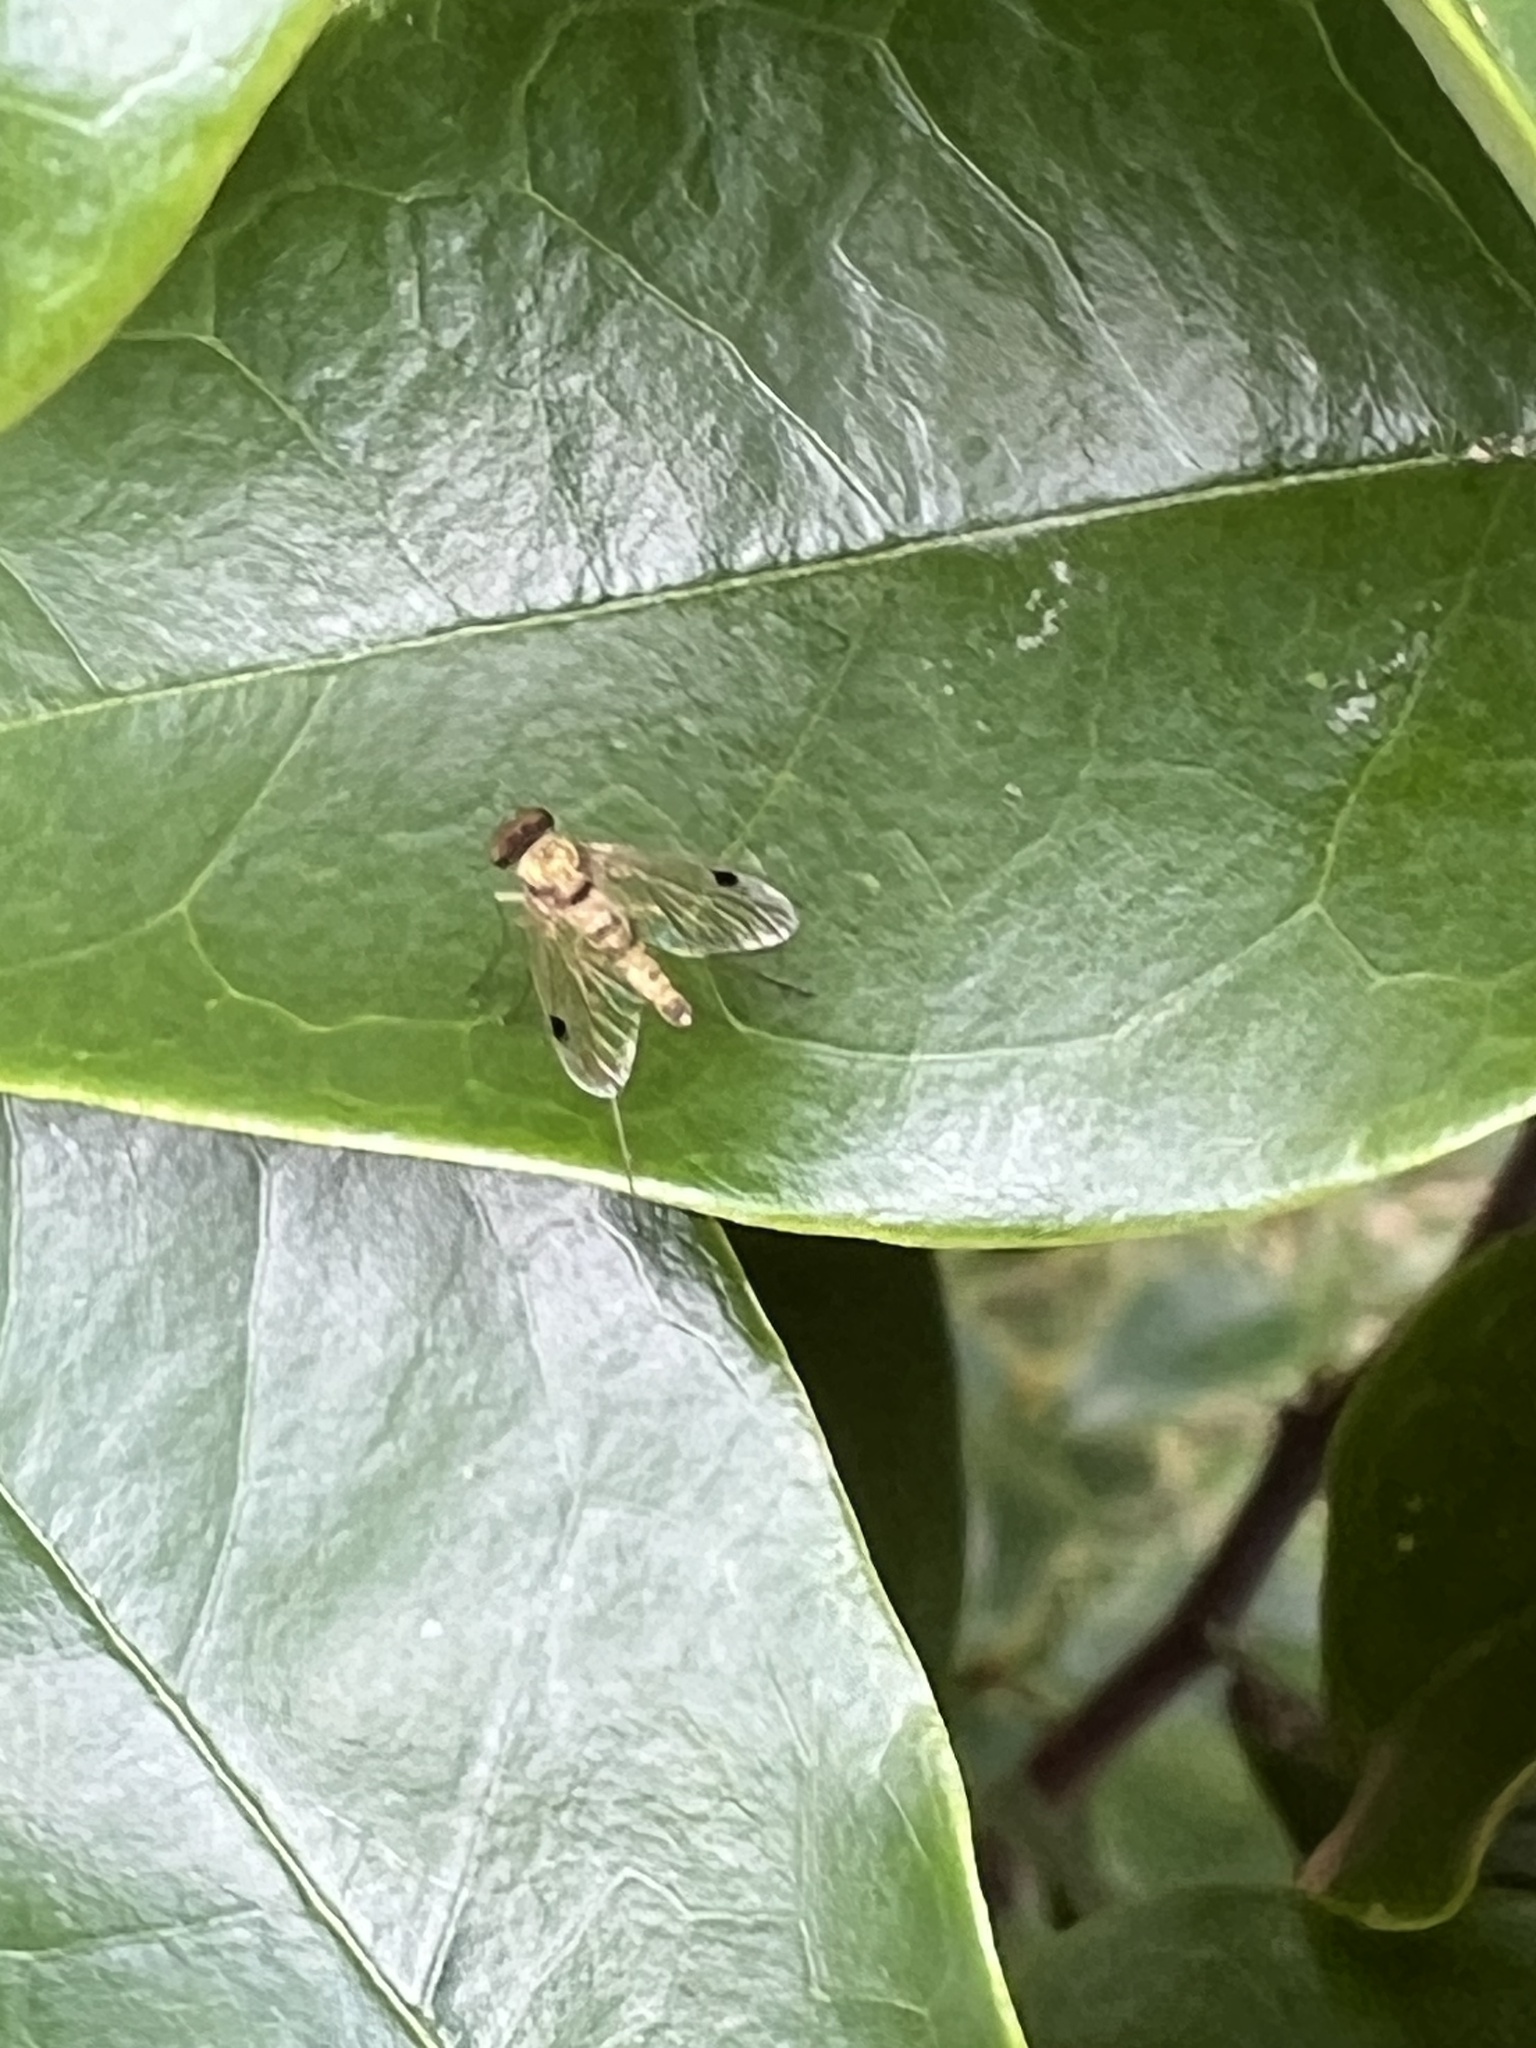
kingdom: Animalia
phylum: Arthropoda
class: Insecta
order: Diptera
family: Rhagionidae
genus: Chrysopilus
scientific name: Chrysopilus modestus
